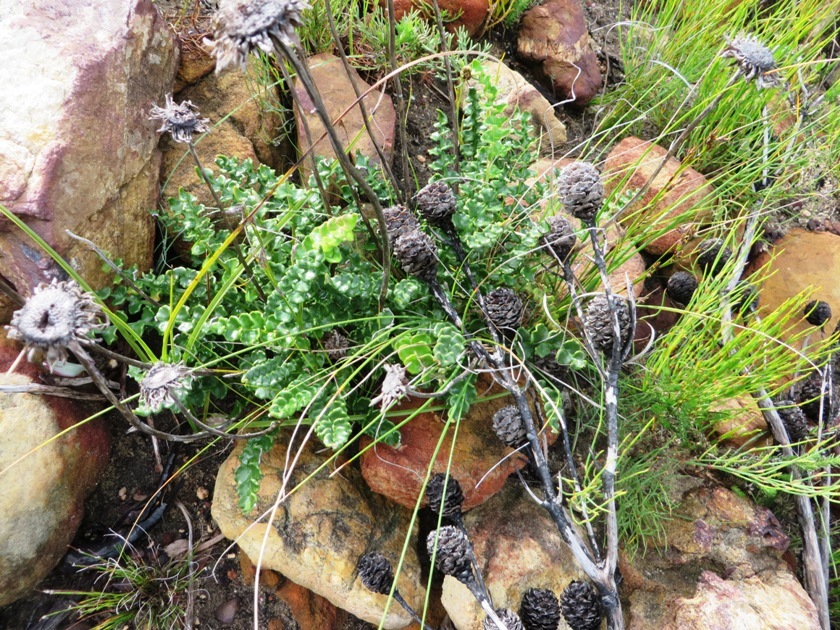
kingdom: Plantae
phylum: Tracheophyta
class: Magnoliopsida
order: Asterales
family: Asteraceae
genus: Gerbera
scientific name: Gerbera linnaei
